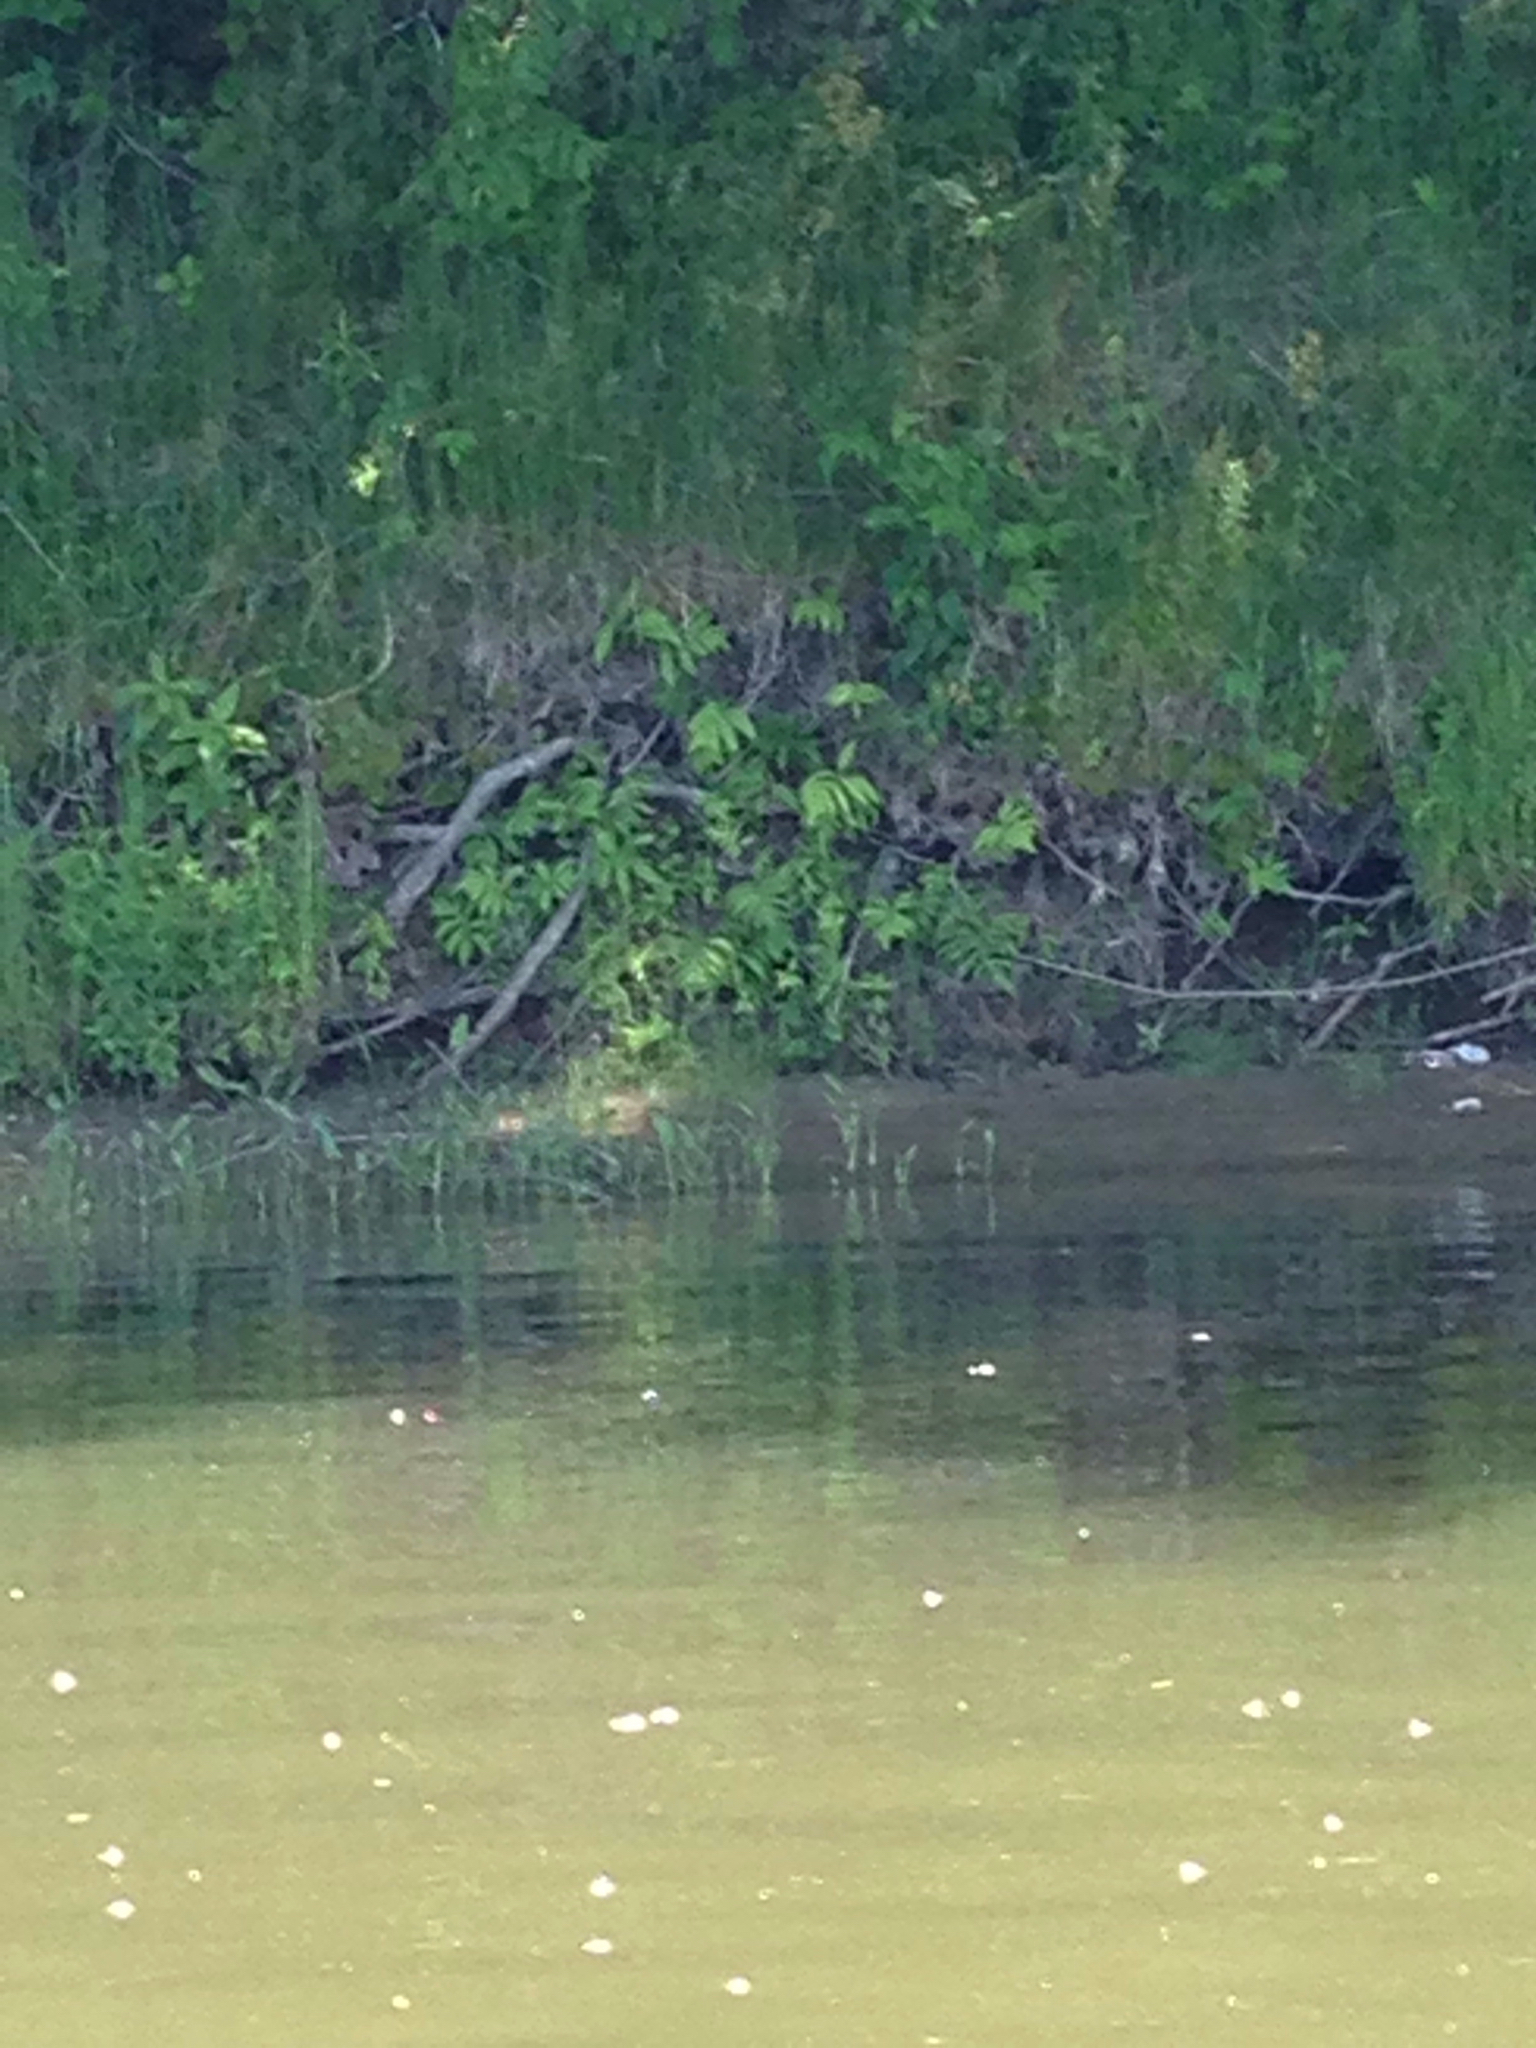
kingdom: Plantae
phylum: Tracheophyta
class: Polypodiopsida
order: Polypodiales
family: Onocleaceae
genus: Onoclea
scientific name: Onoclea sensibilis
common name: Sensitive fern
